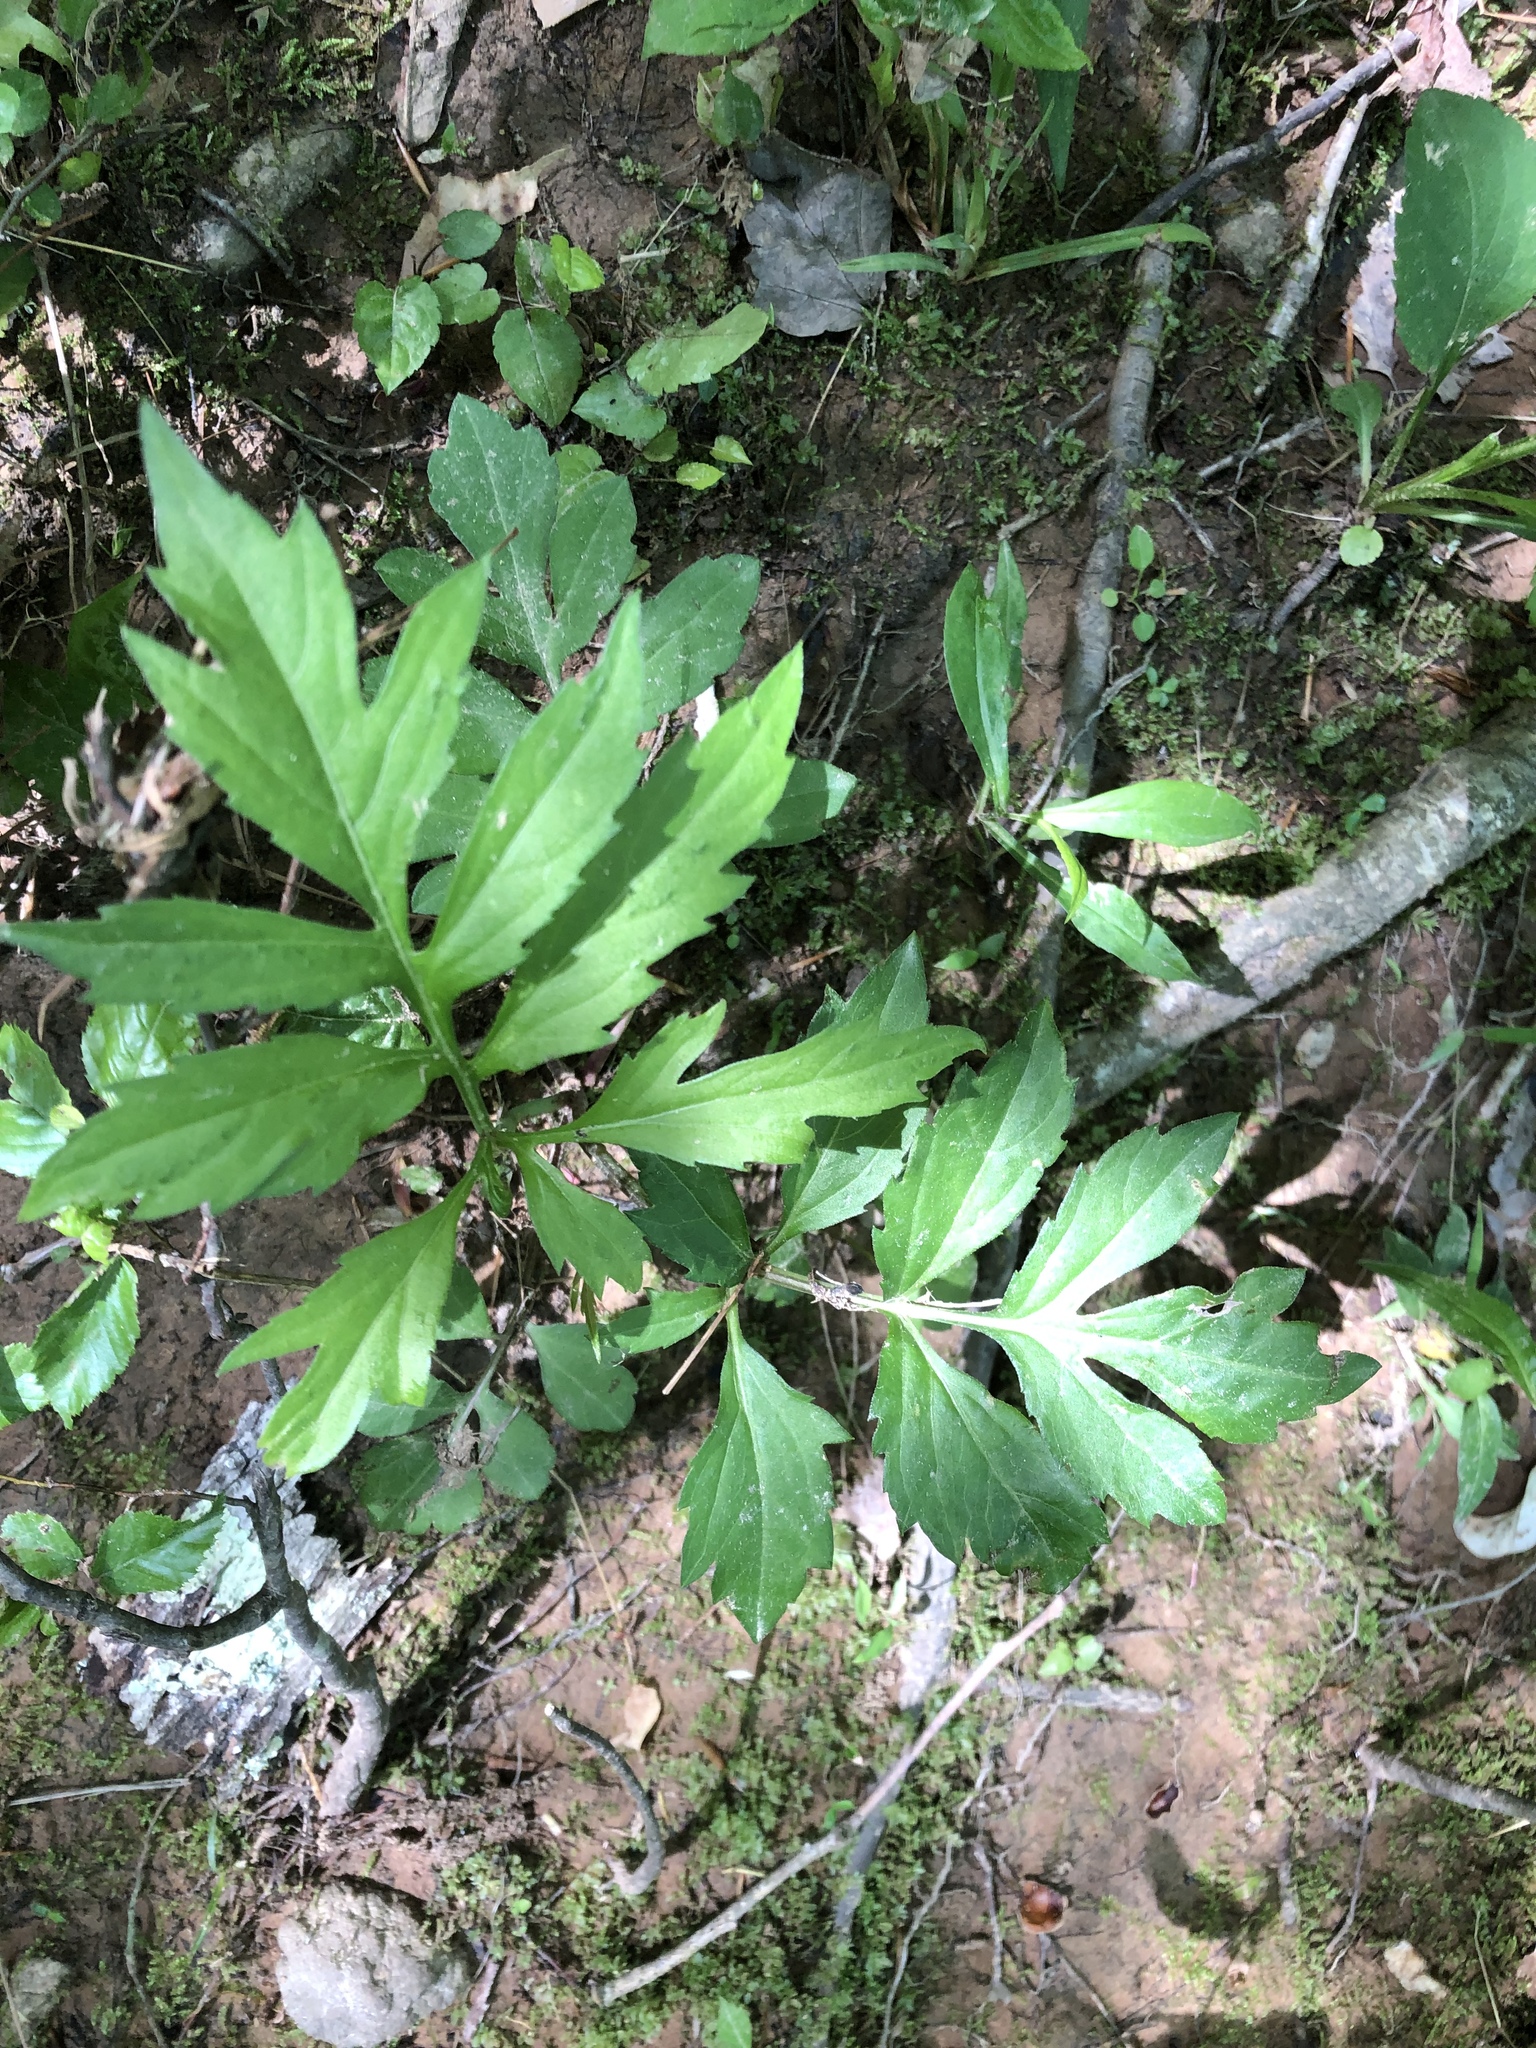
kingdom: Plantae
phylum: Tracheophyta
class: Magnoliopsida
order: Asterales
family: Asteraceae
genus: Rudbeckia
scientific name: Rudbeckia laciniata
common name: Coneflower
